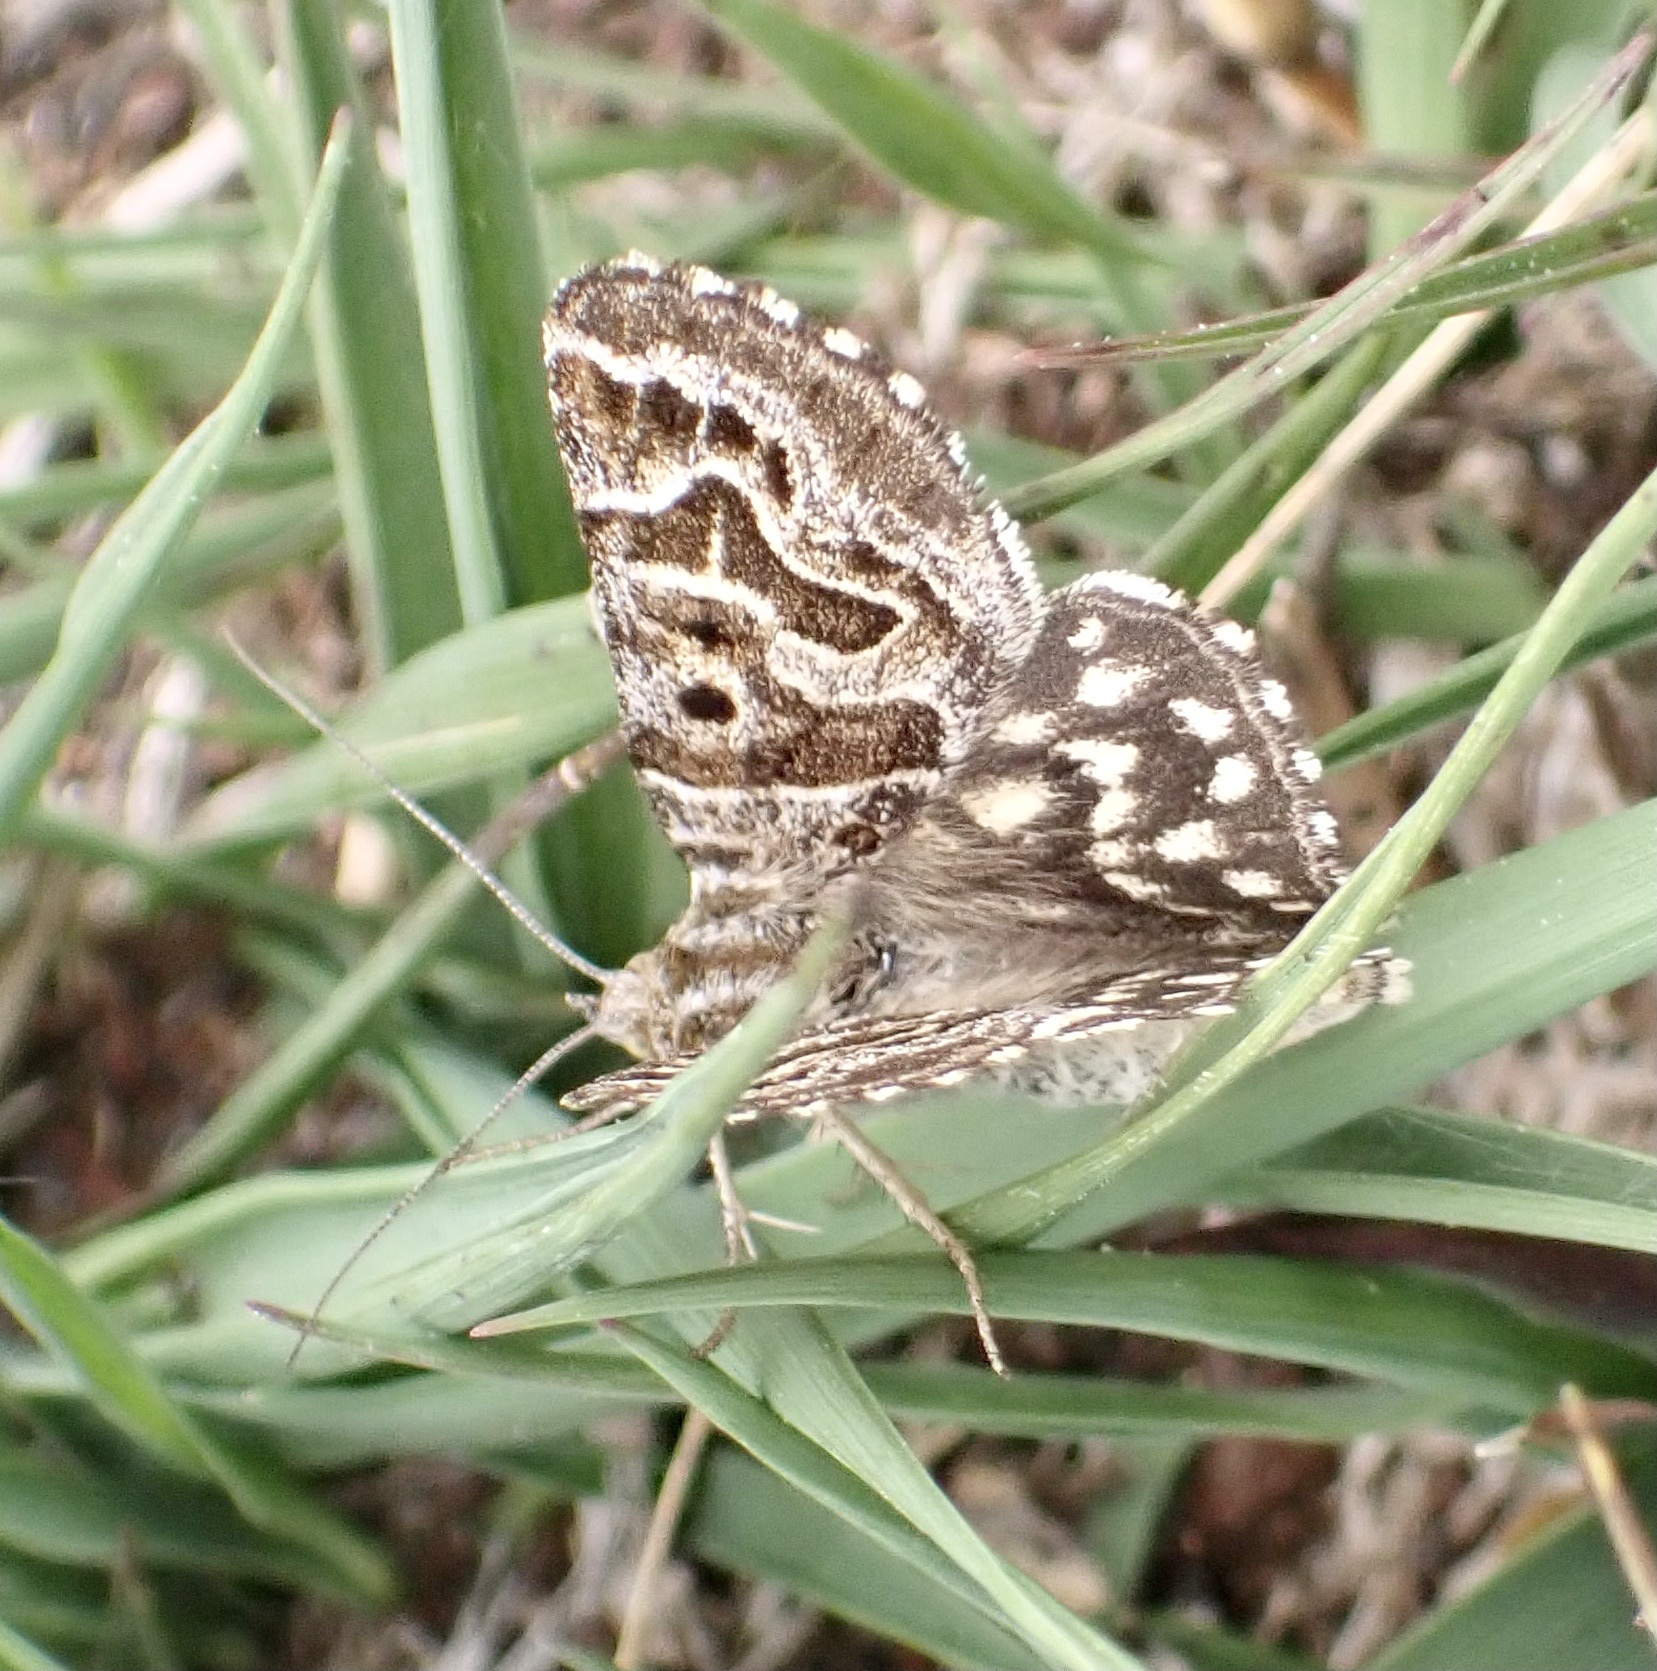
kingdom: Animalia
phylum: Arthropoda
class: Insecta
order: Lepidoptera
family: Erebidae
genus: Callistege
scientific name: Callistege mi
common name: Mother shipton
